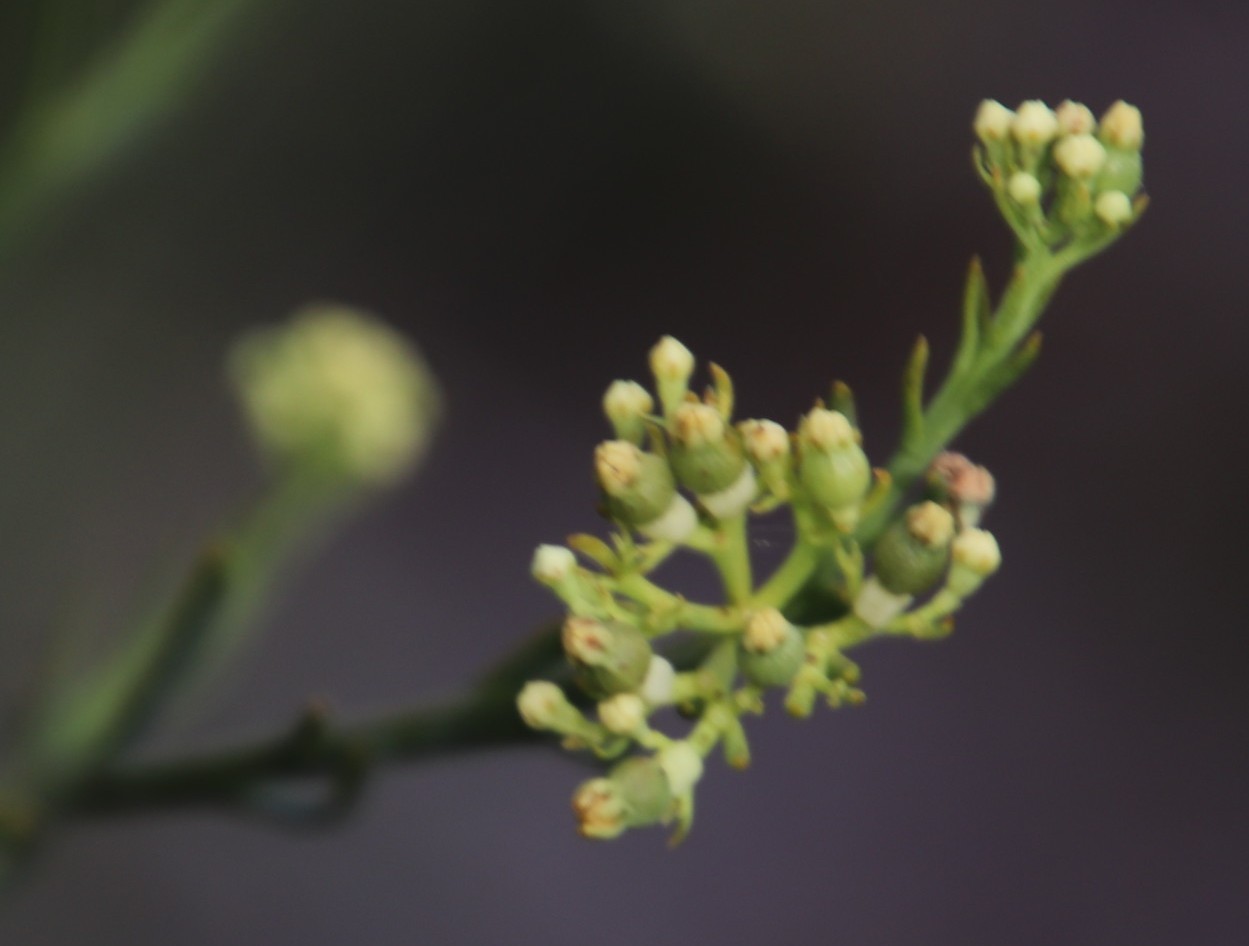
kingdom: Plantae
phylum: Tracheophyta
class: Magnoliopsida
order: Santalales
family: Thesiaceae
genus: Thesium
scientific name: Thesium strictum
